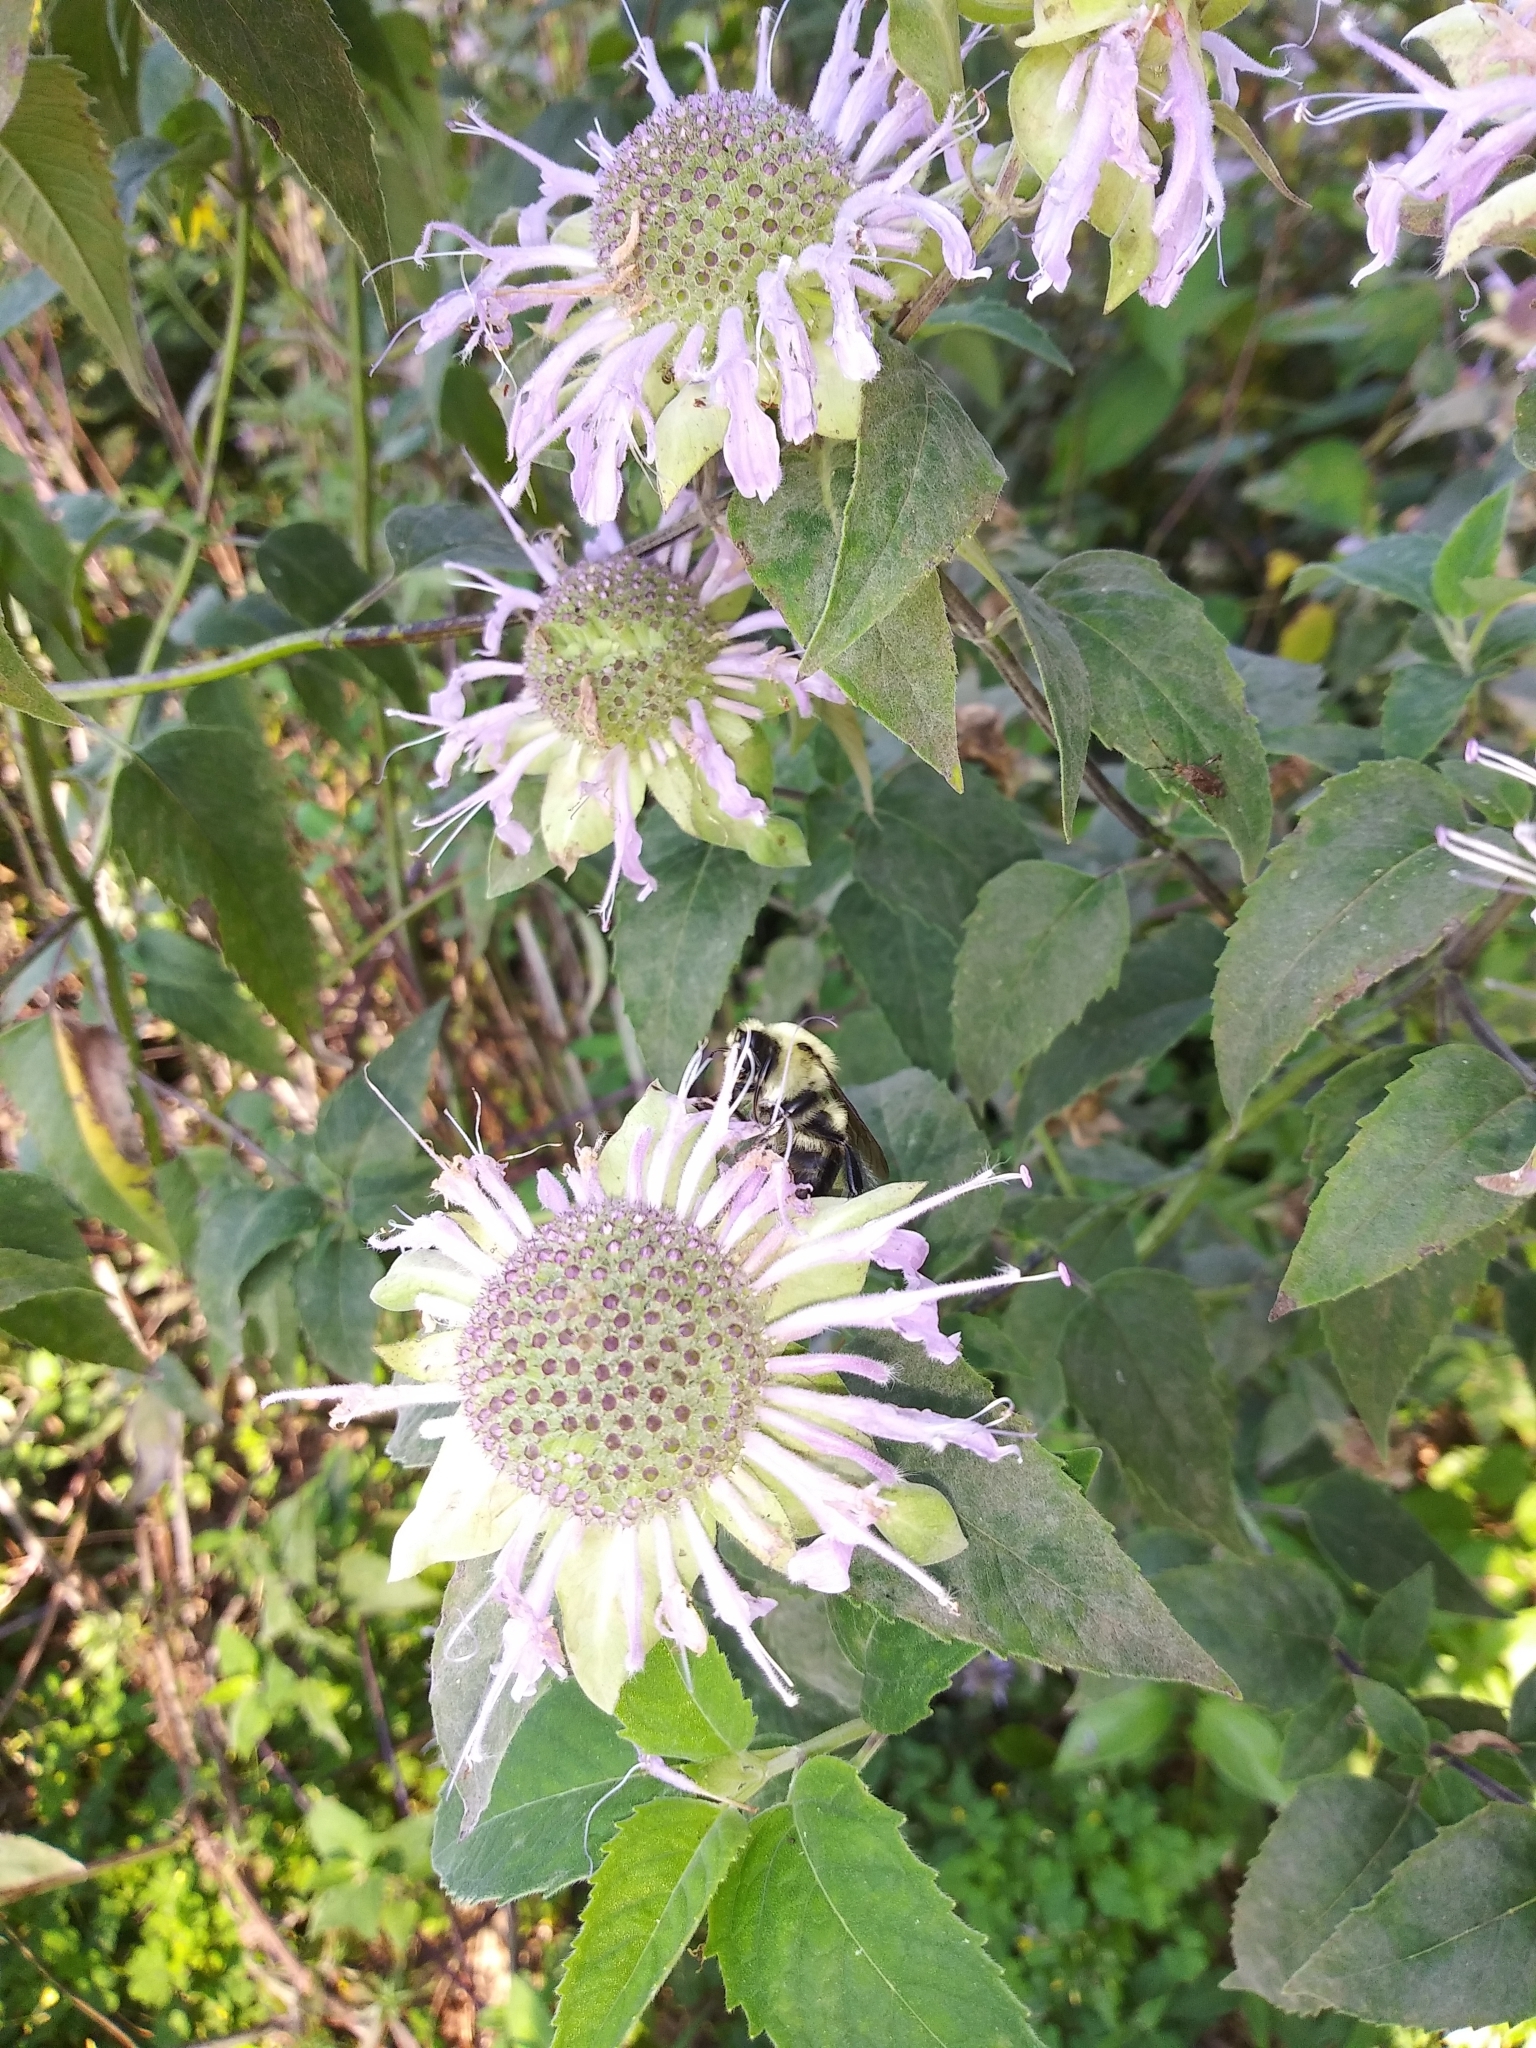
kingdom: Animalia
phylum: Arthropoda
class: Insecta
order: Hymenoptera
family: Apidae
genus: Bombus
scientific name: Bombus griseocollis
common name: Brown-belted bumble bee
